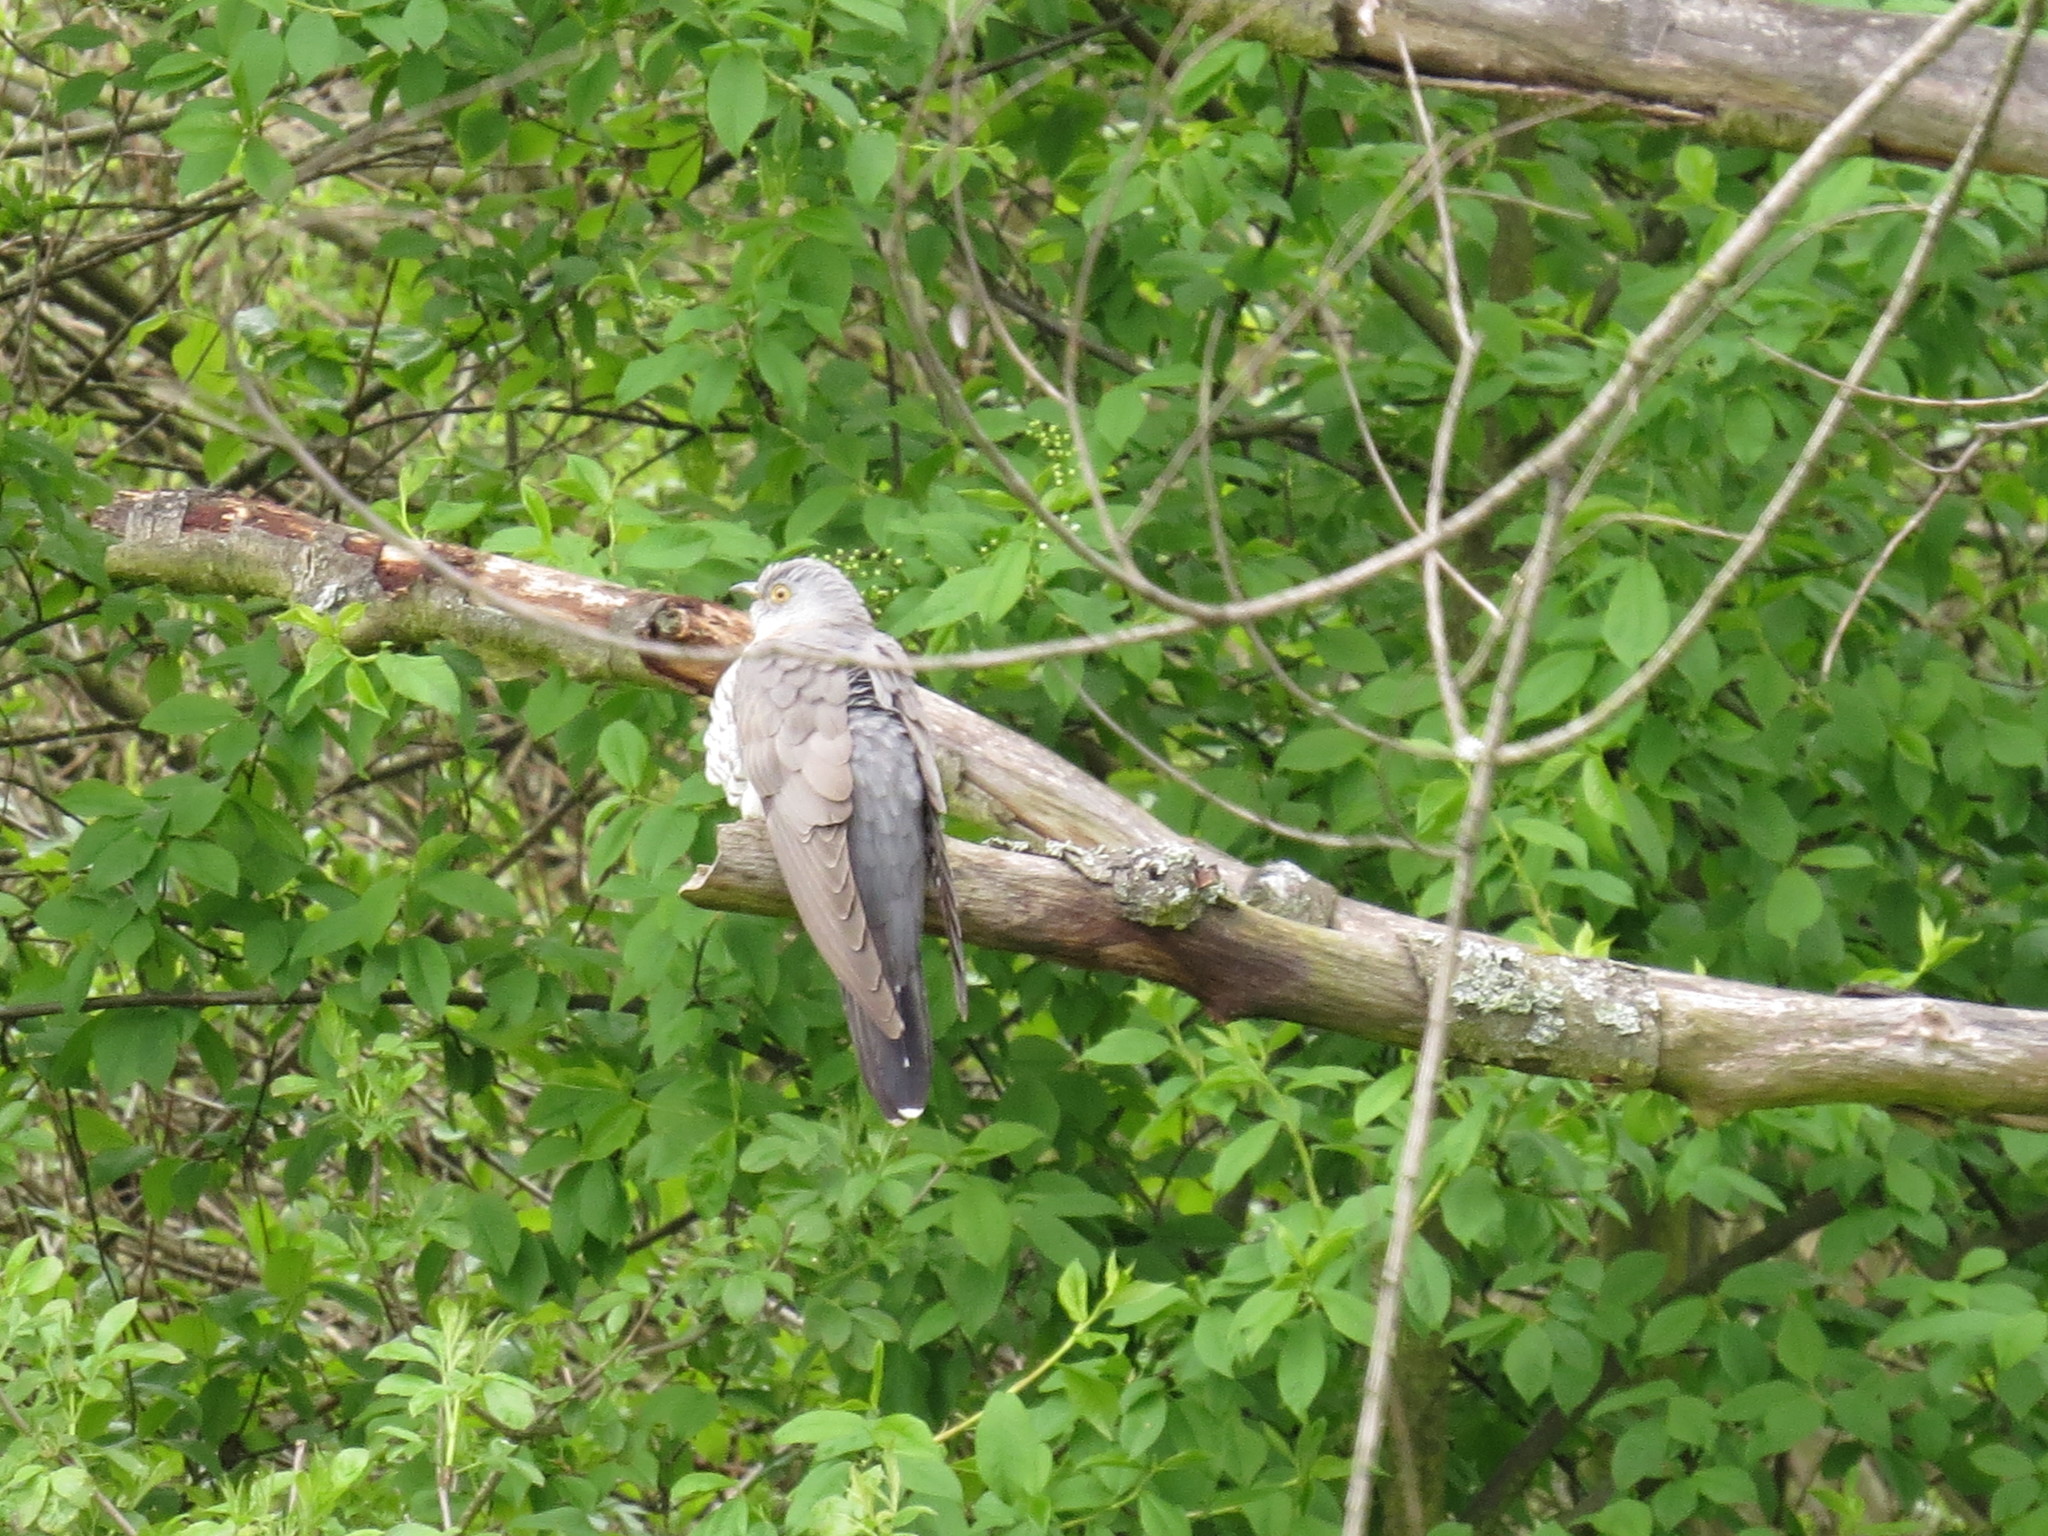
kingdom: Animalia
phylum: Chordata
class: Aves
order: Cuculiformes
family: Cuculidae
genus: Cuculus
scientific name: Cuculus canorus
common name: Common cuckoo
